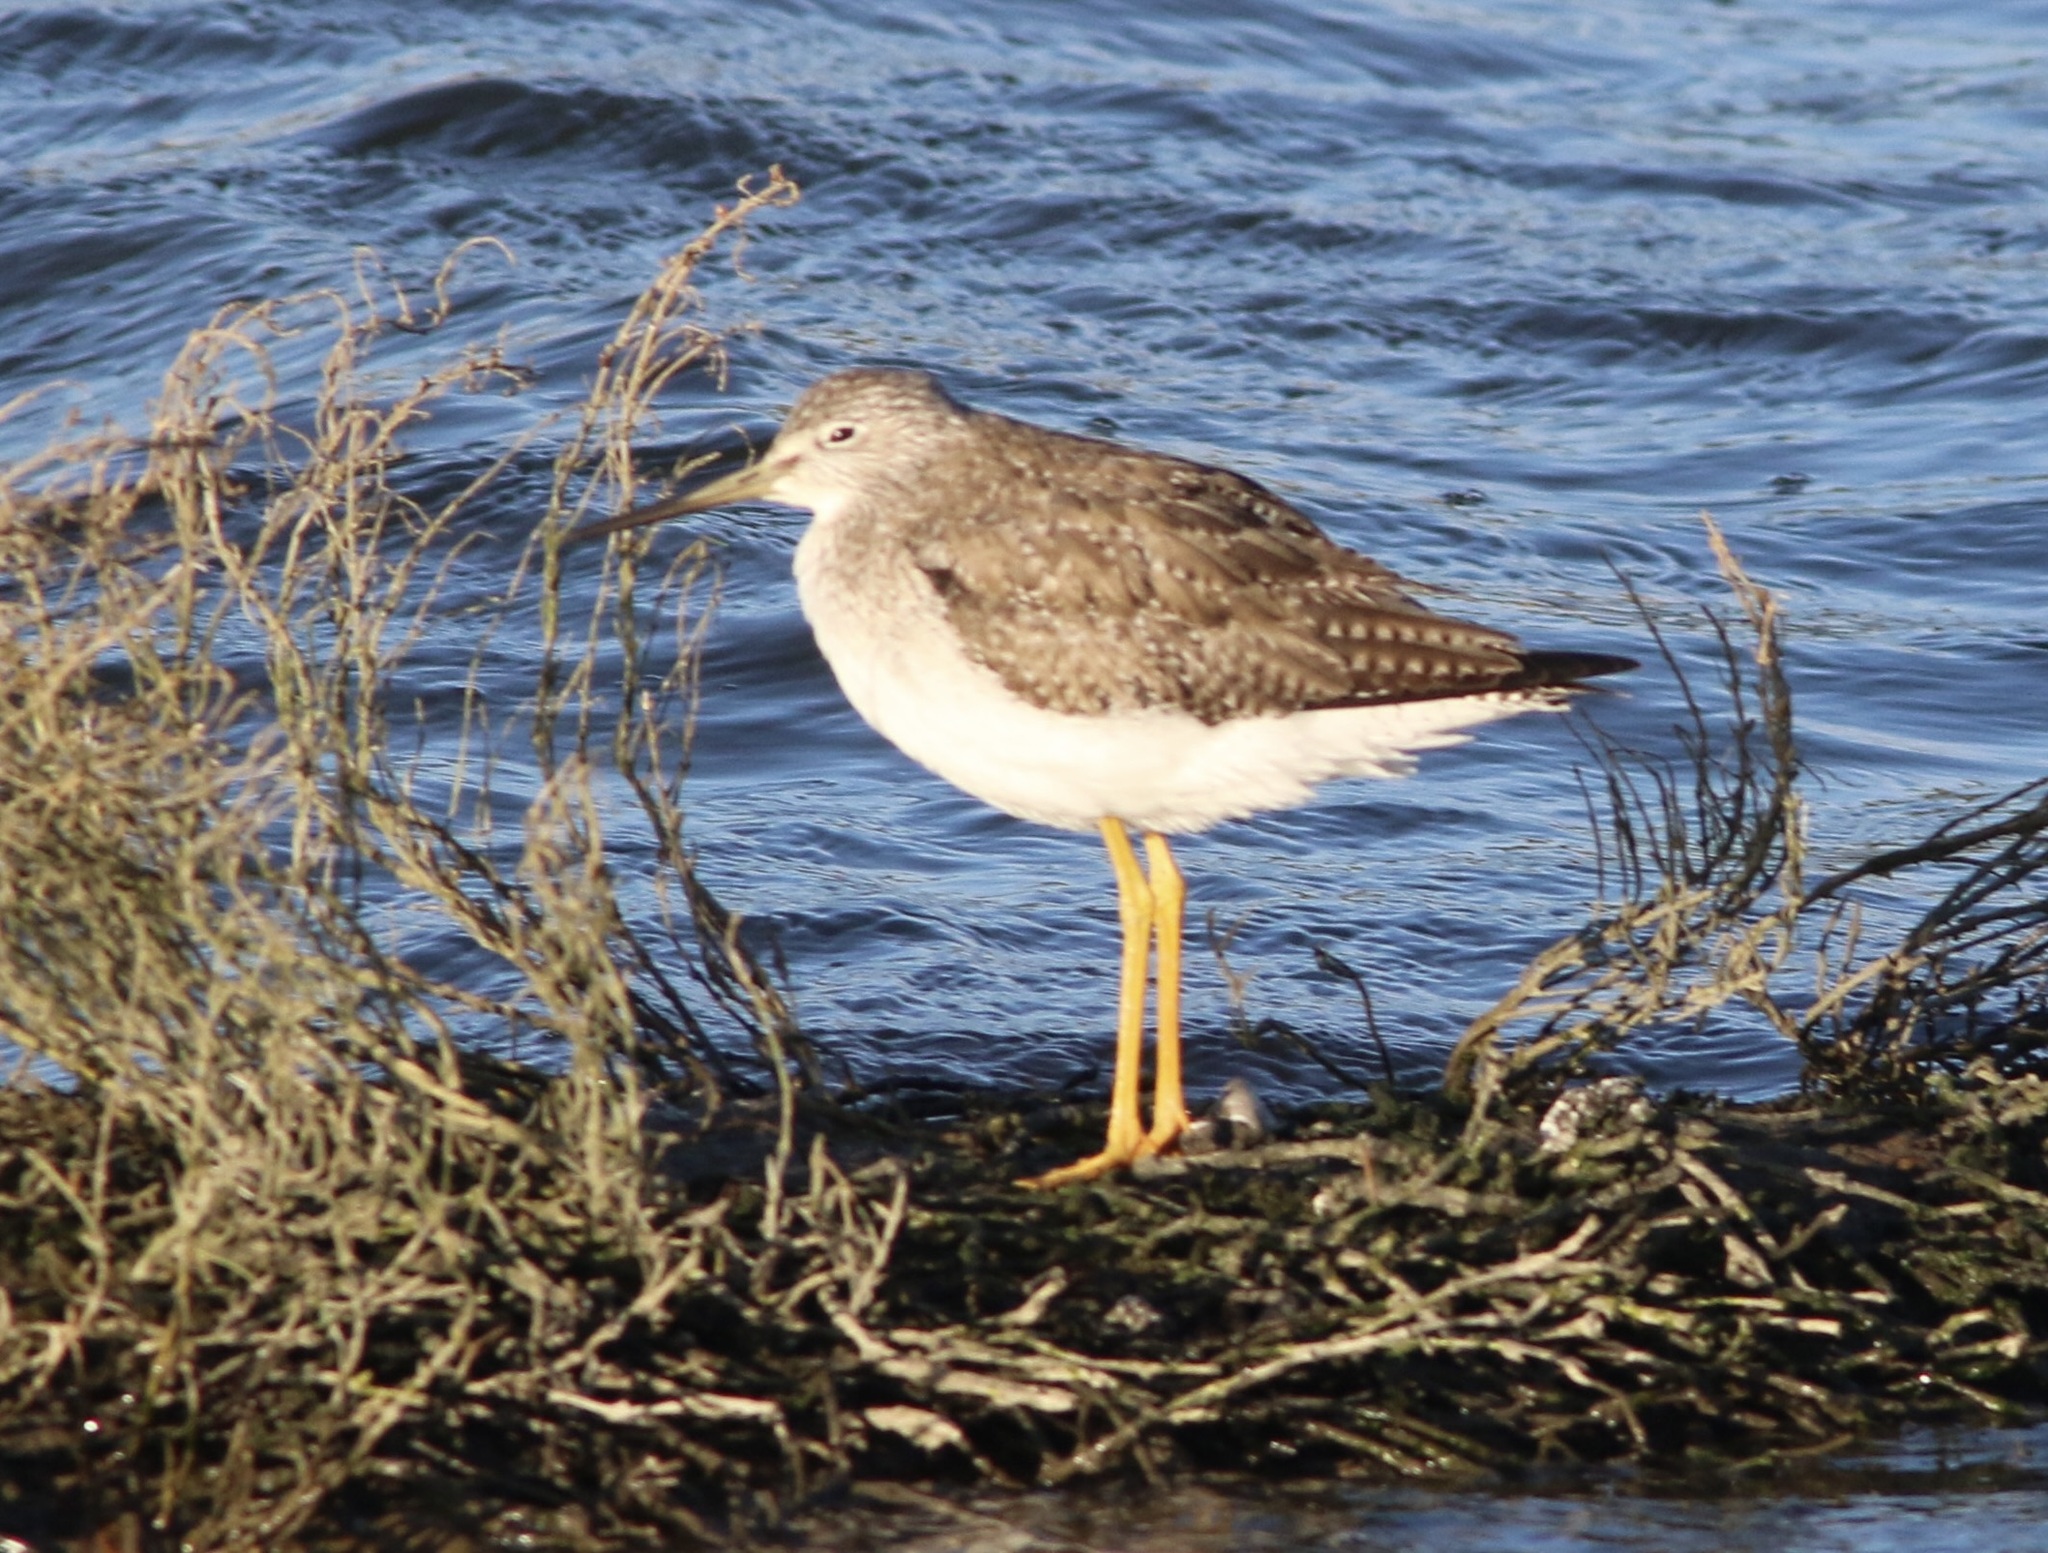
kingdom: Animalia
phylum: Chordata
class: Aves
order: Charadriiformes
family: Scolopacidae
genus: Tringa
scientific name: Tringa melanoleuca
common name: Greater yellowlegs
